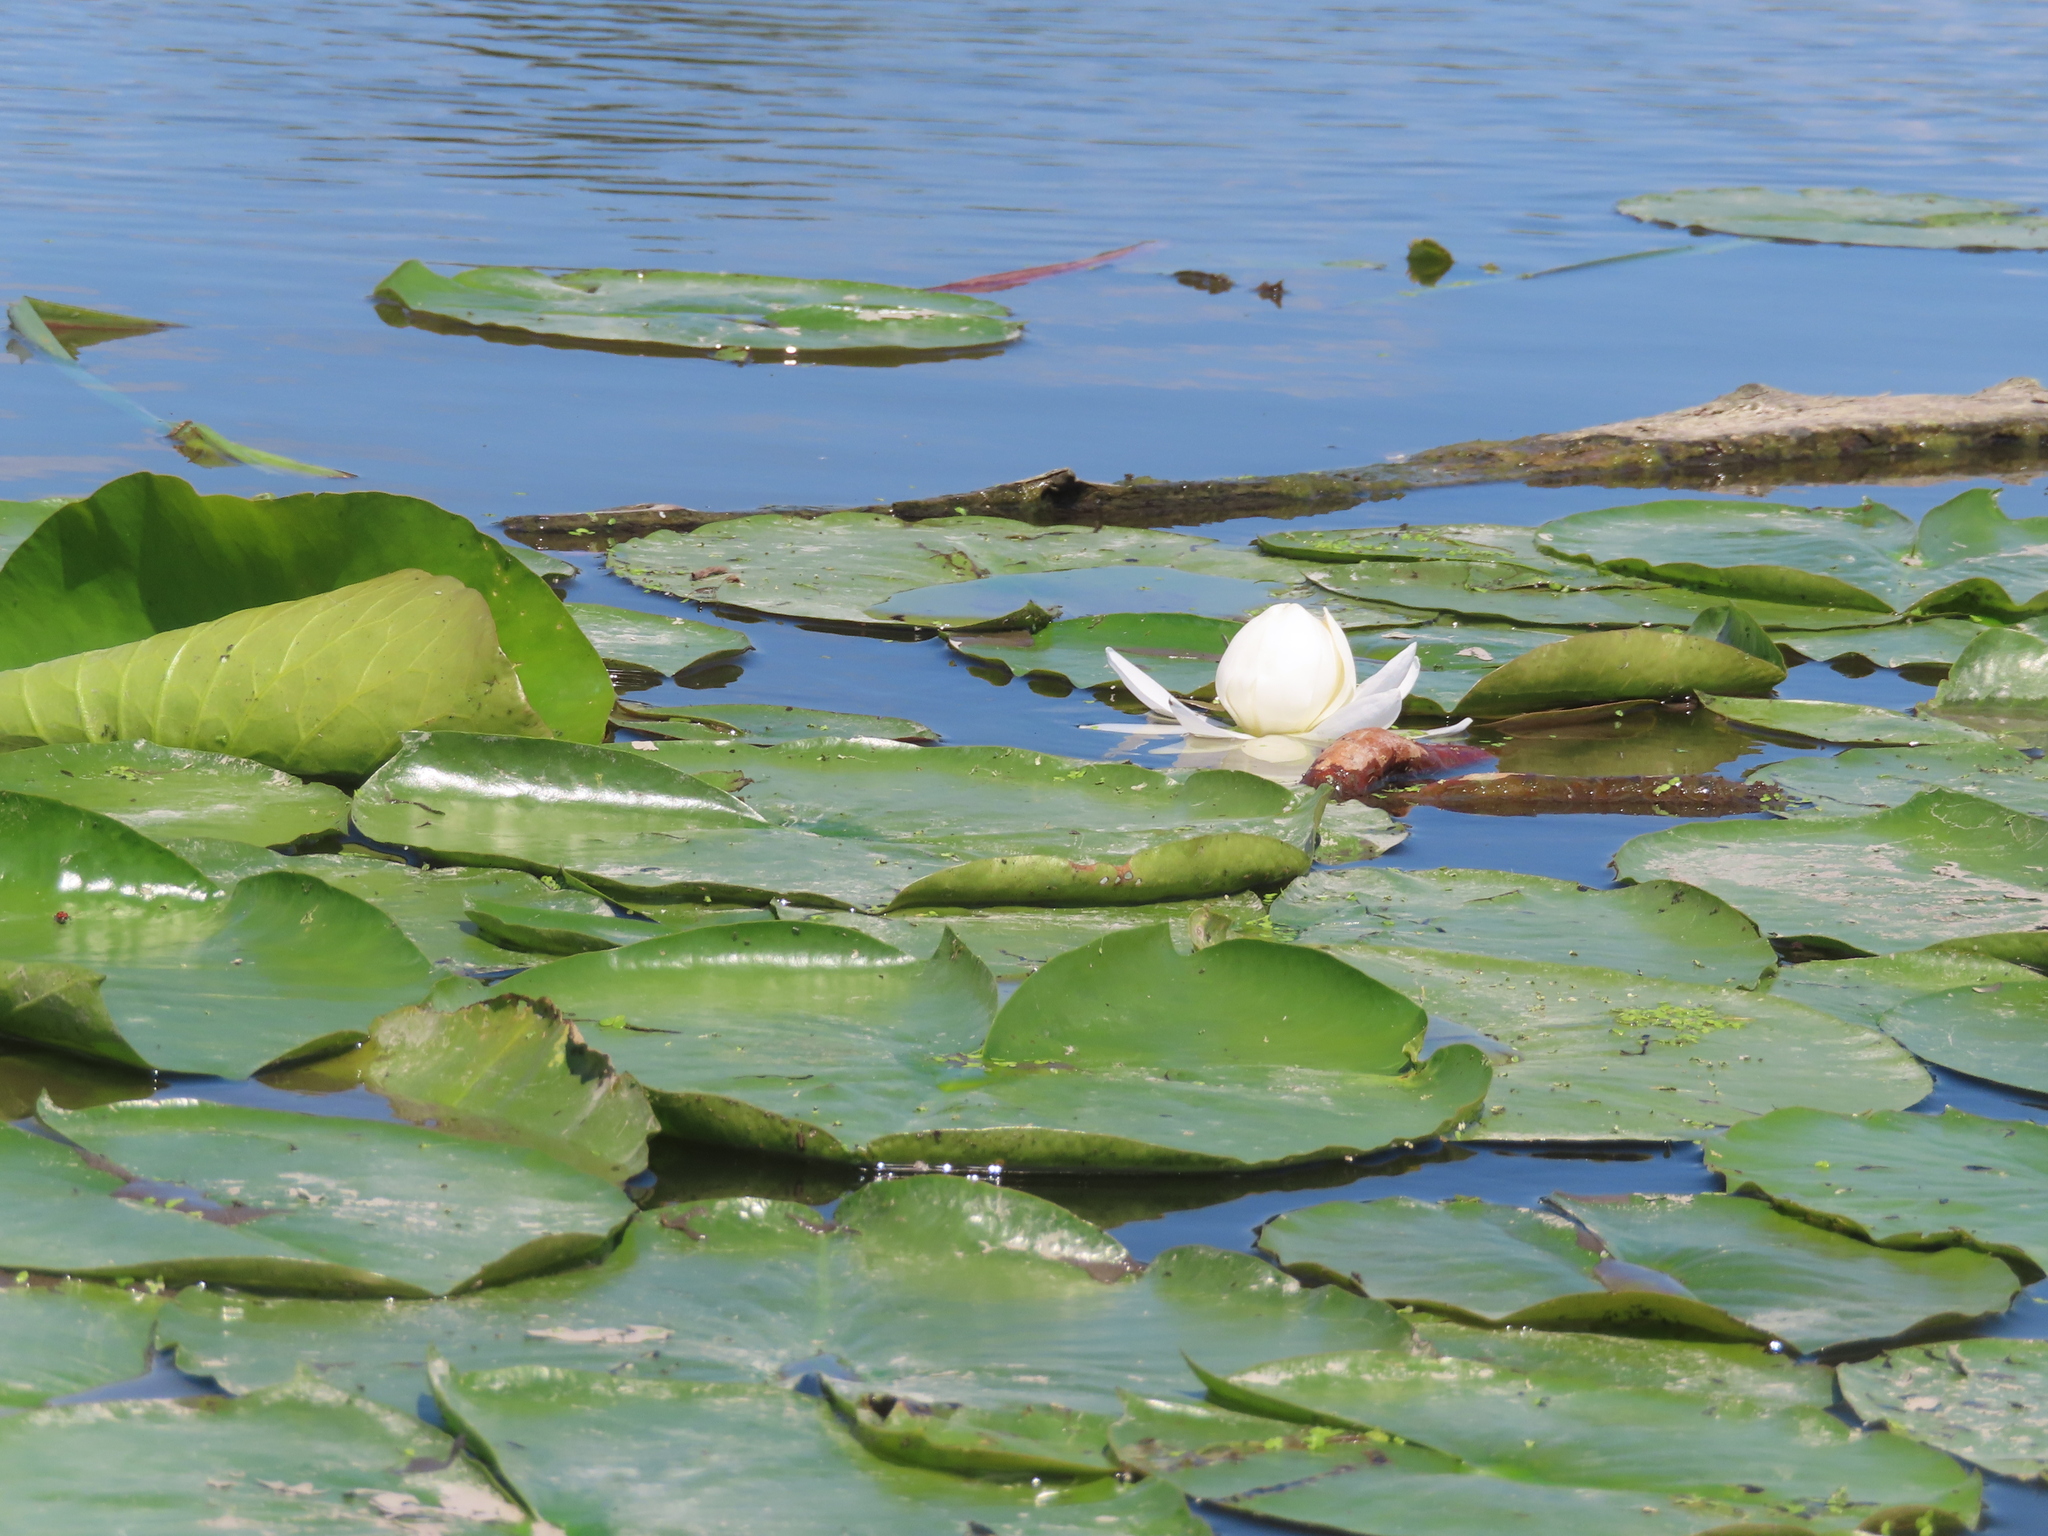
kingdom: Plantae
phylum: Tracheophyta
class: Magnoliopsida
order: Nymphaeales
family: Nymphaeaceae
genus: Nymphaea
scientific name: Nymphaea odorata
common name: Fragrant water-lily
